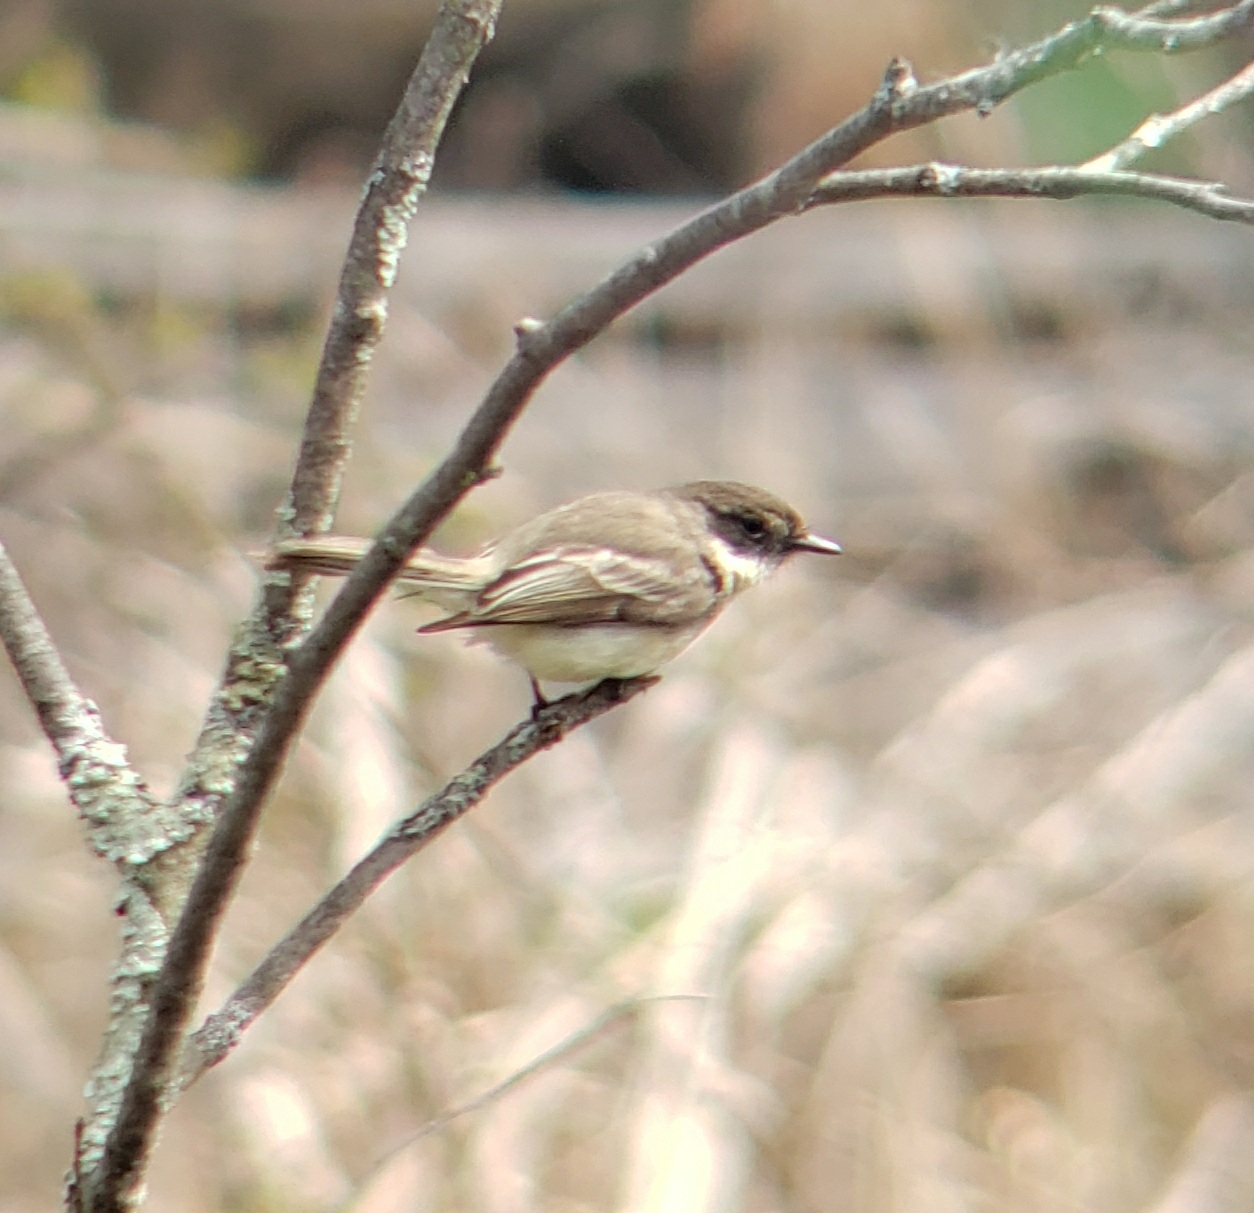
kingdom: Animalia
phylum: Chordata
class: Aves
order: Passeriformes
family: Tyrannidae
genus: Sayornis
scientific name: Sayornis phoebe
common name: Eastern phoebe
